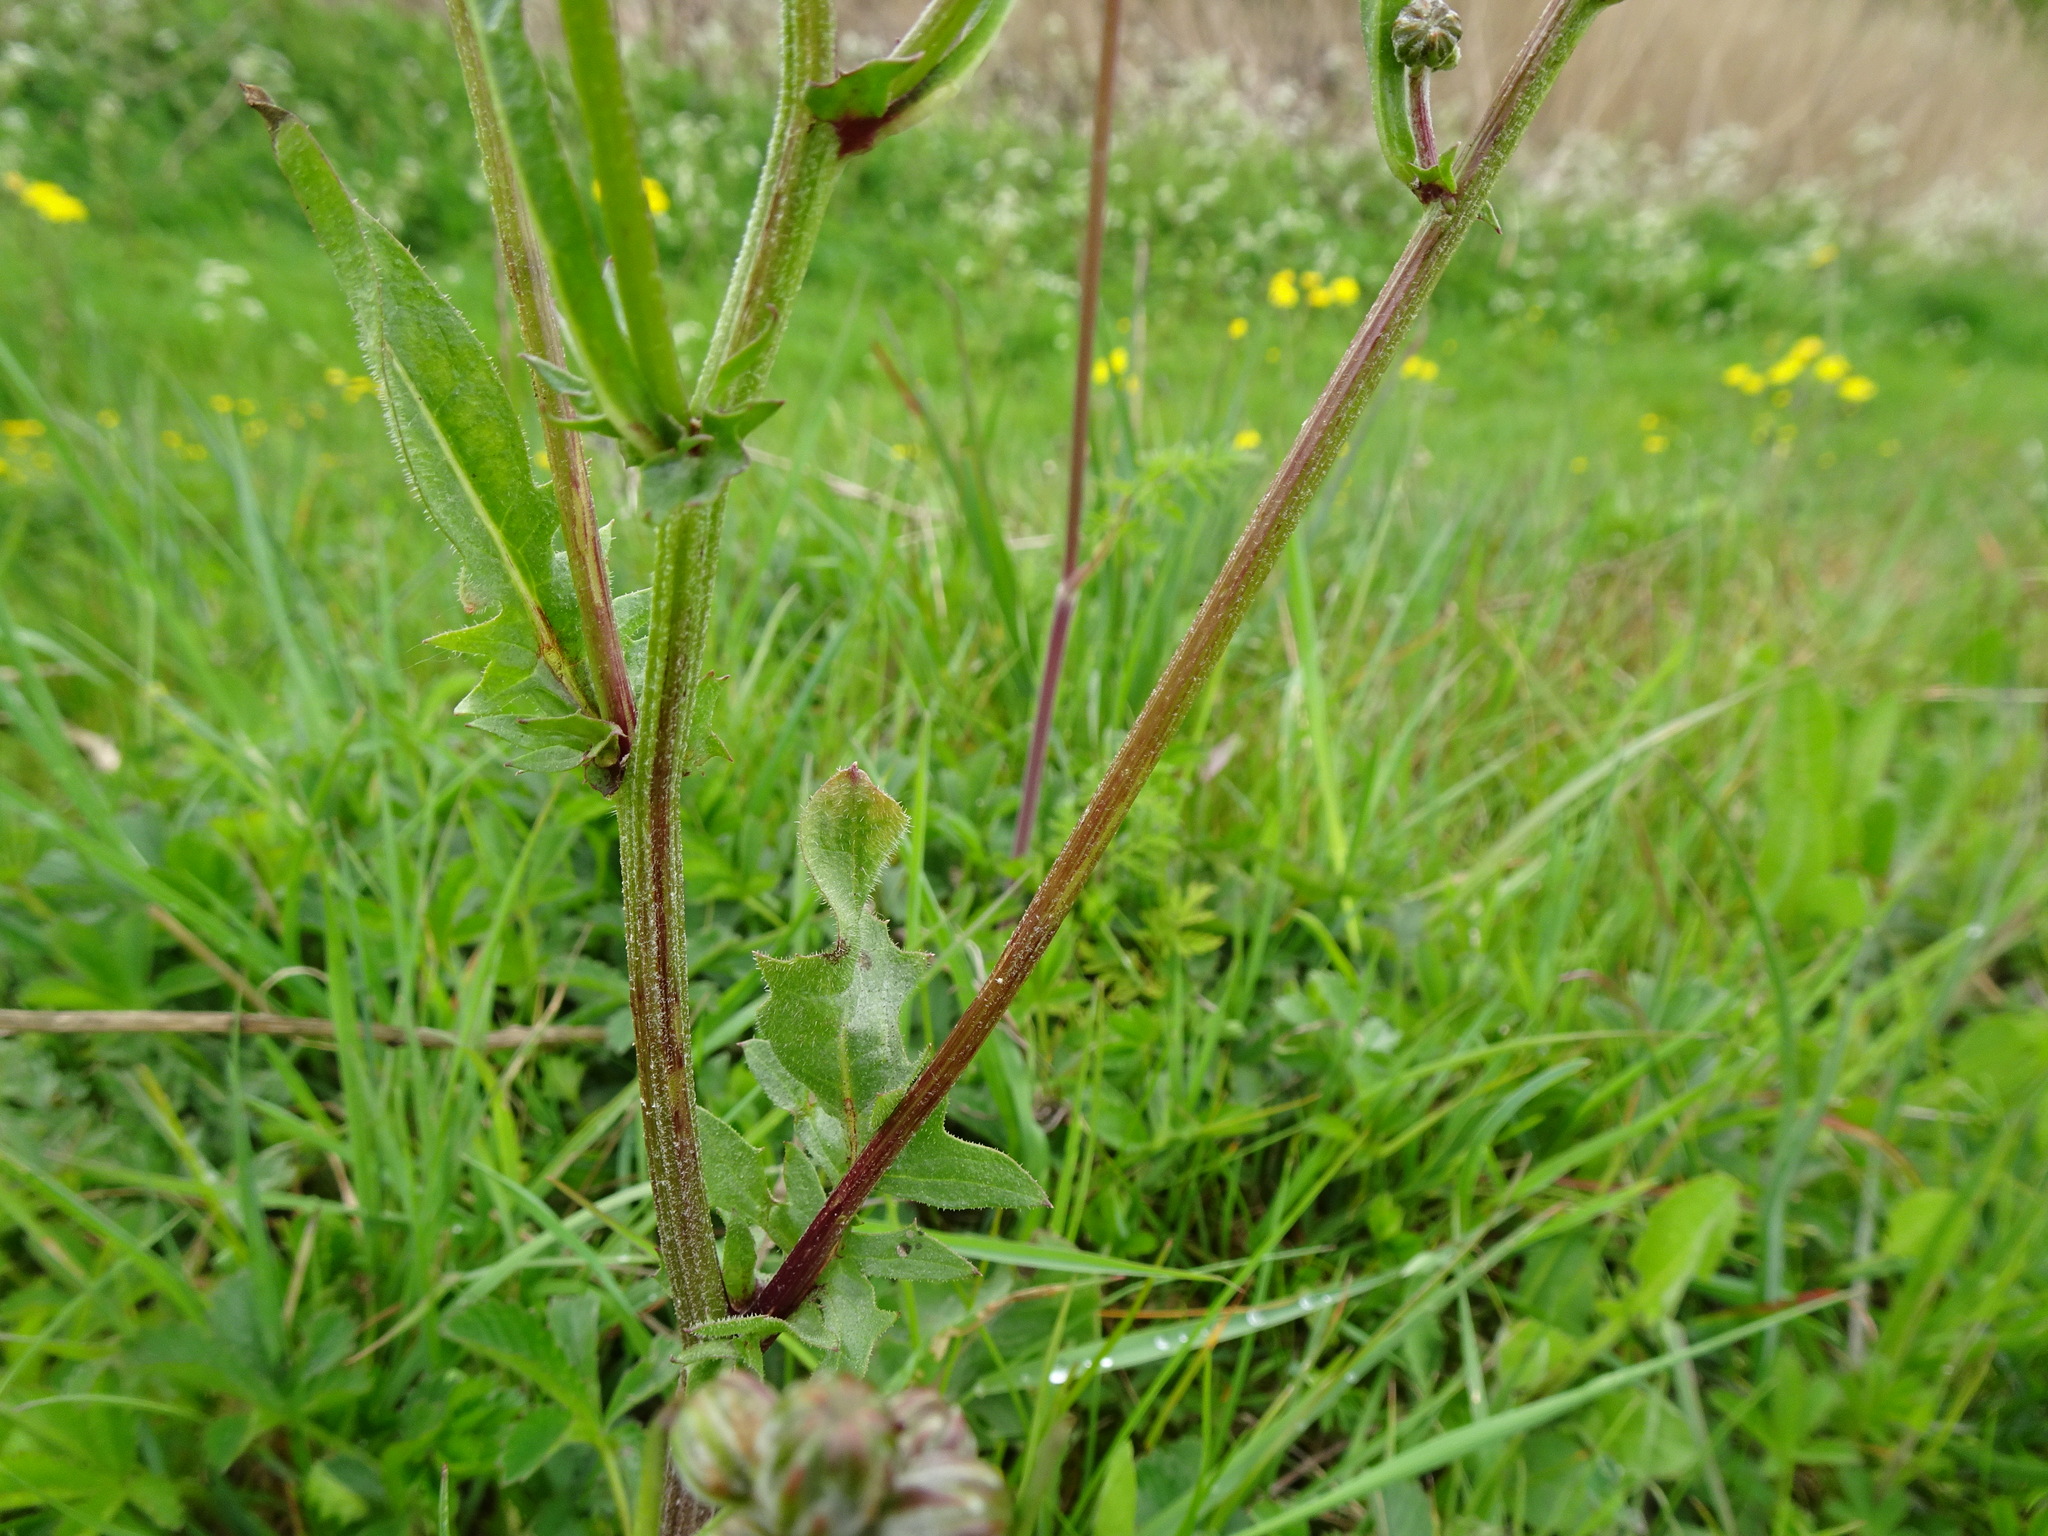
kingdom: Plantae
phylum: Tracheophyta
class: Magnoliopsida
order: Asterales
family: Asteraceae
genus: Crepis
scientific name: Crepis vesicaria
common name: Beaked hawksbeard
